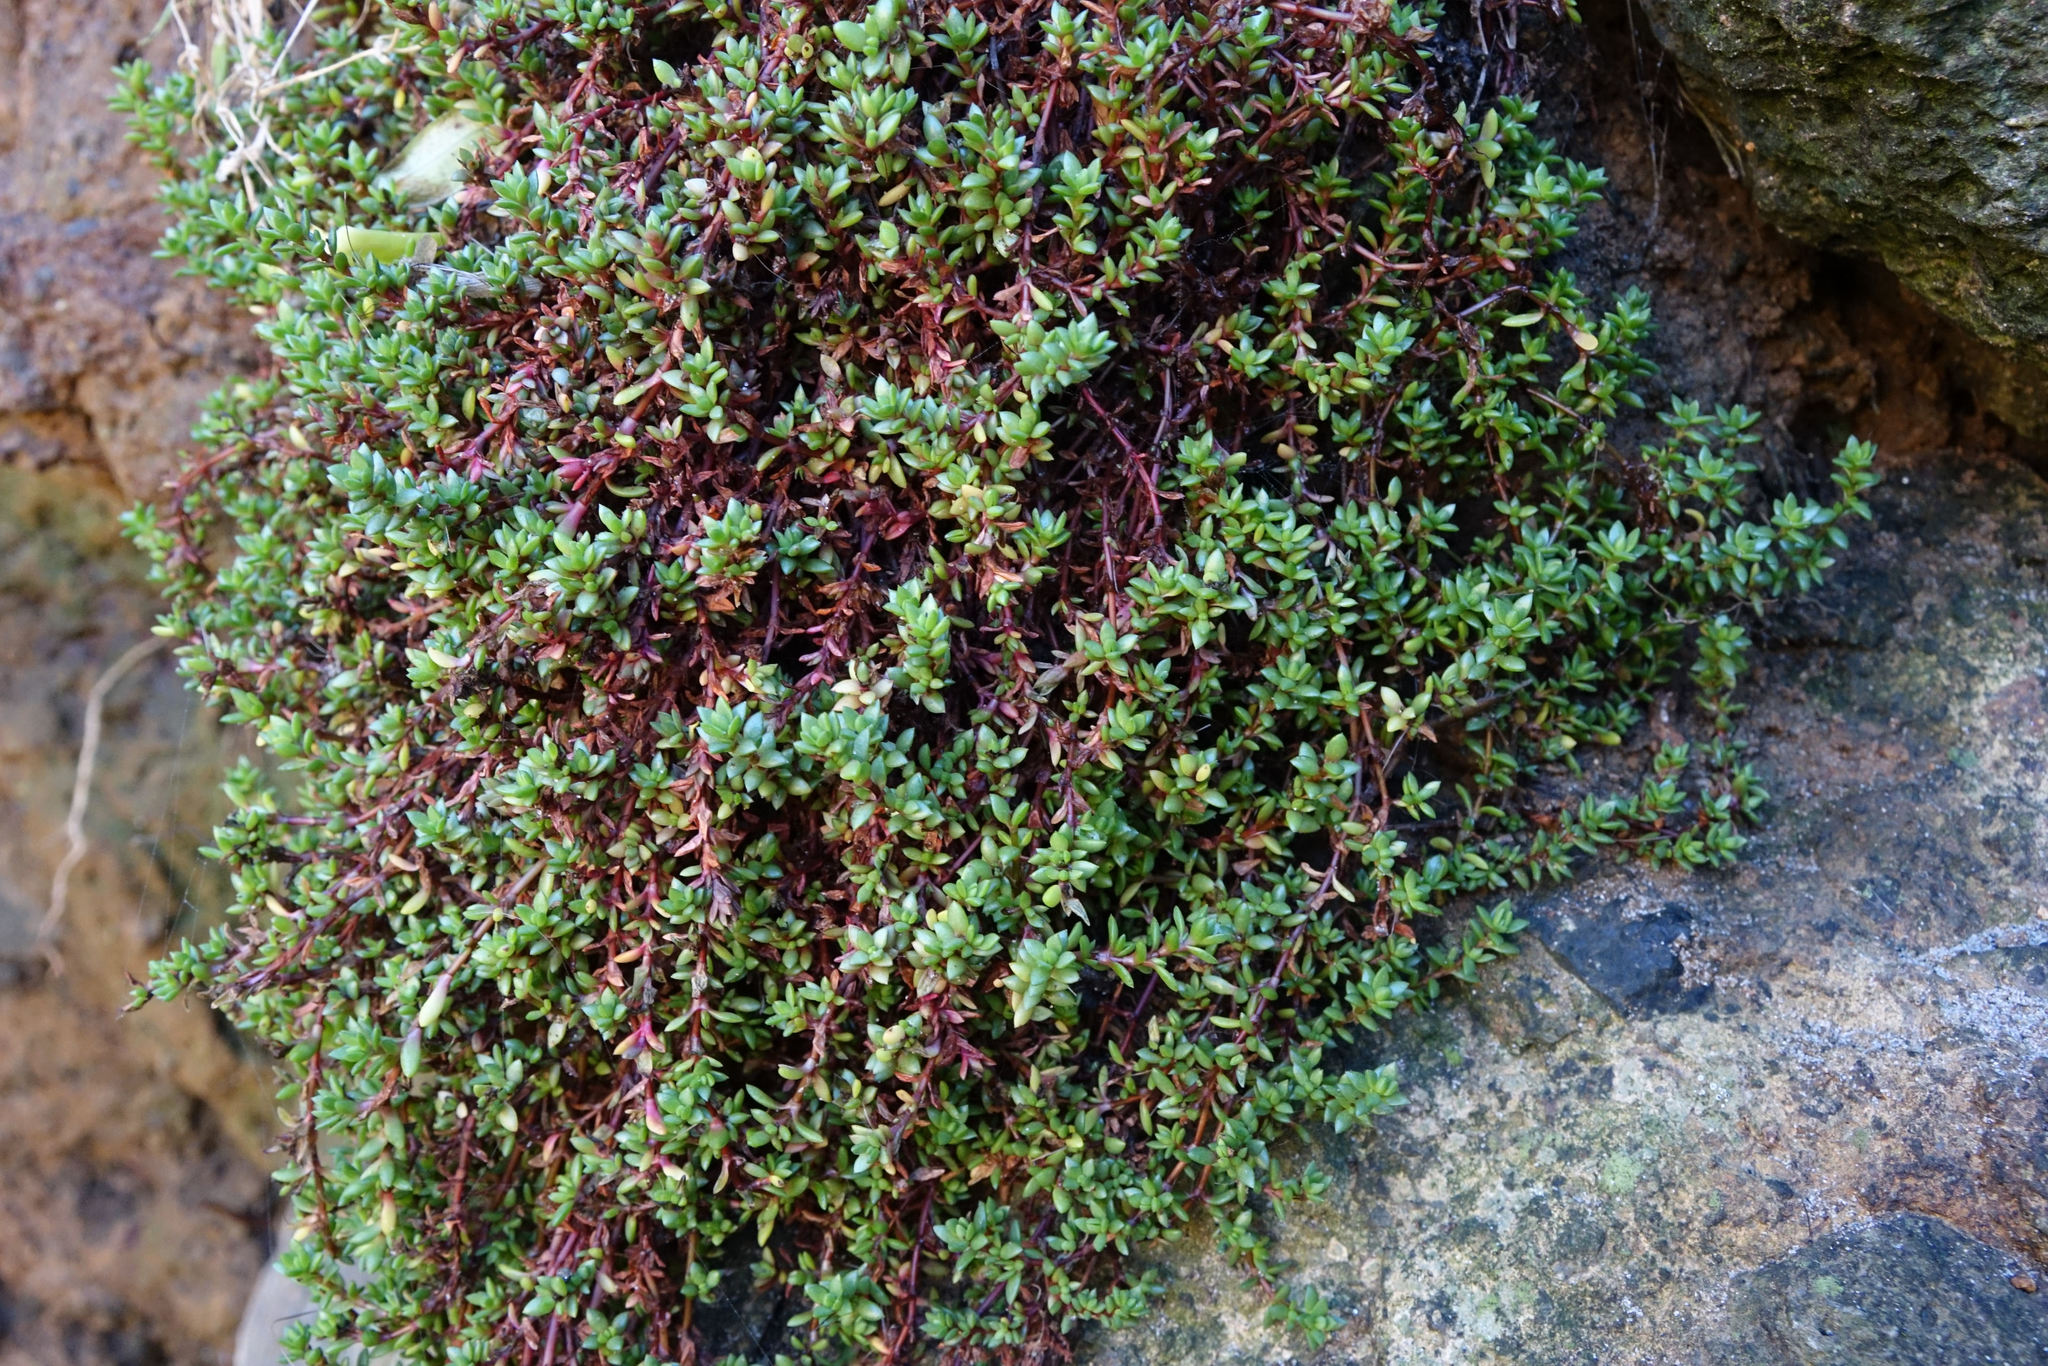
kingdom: Plantae
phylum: Tracheophyta
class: Magnoliopsida
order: Saxifragales
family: Crassulaceae
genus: Crassula
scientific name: Crassula moschata
